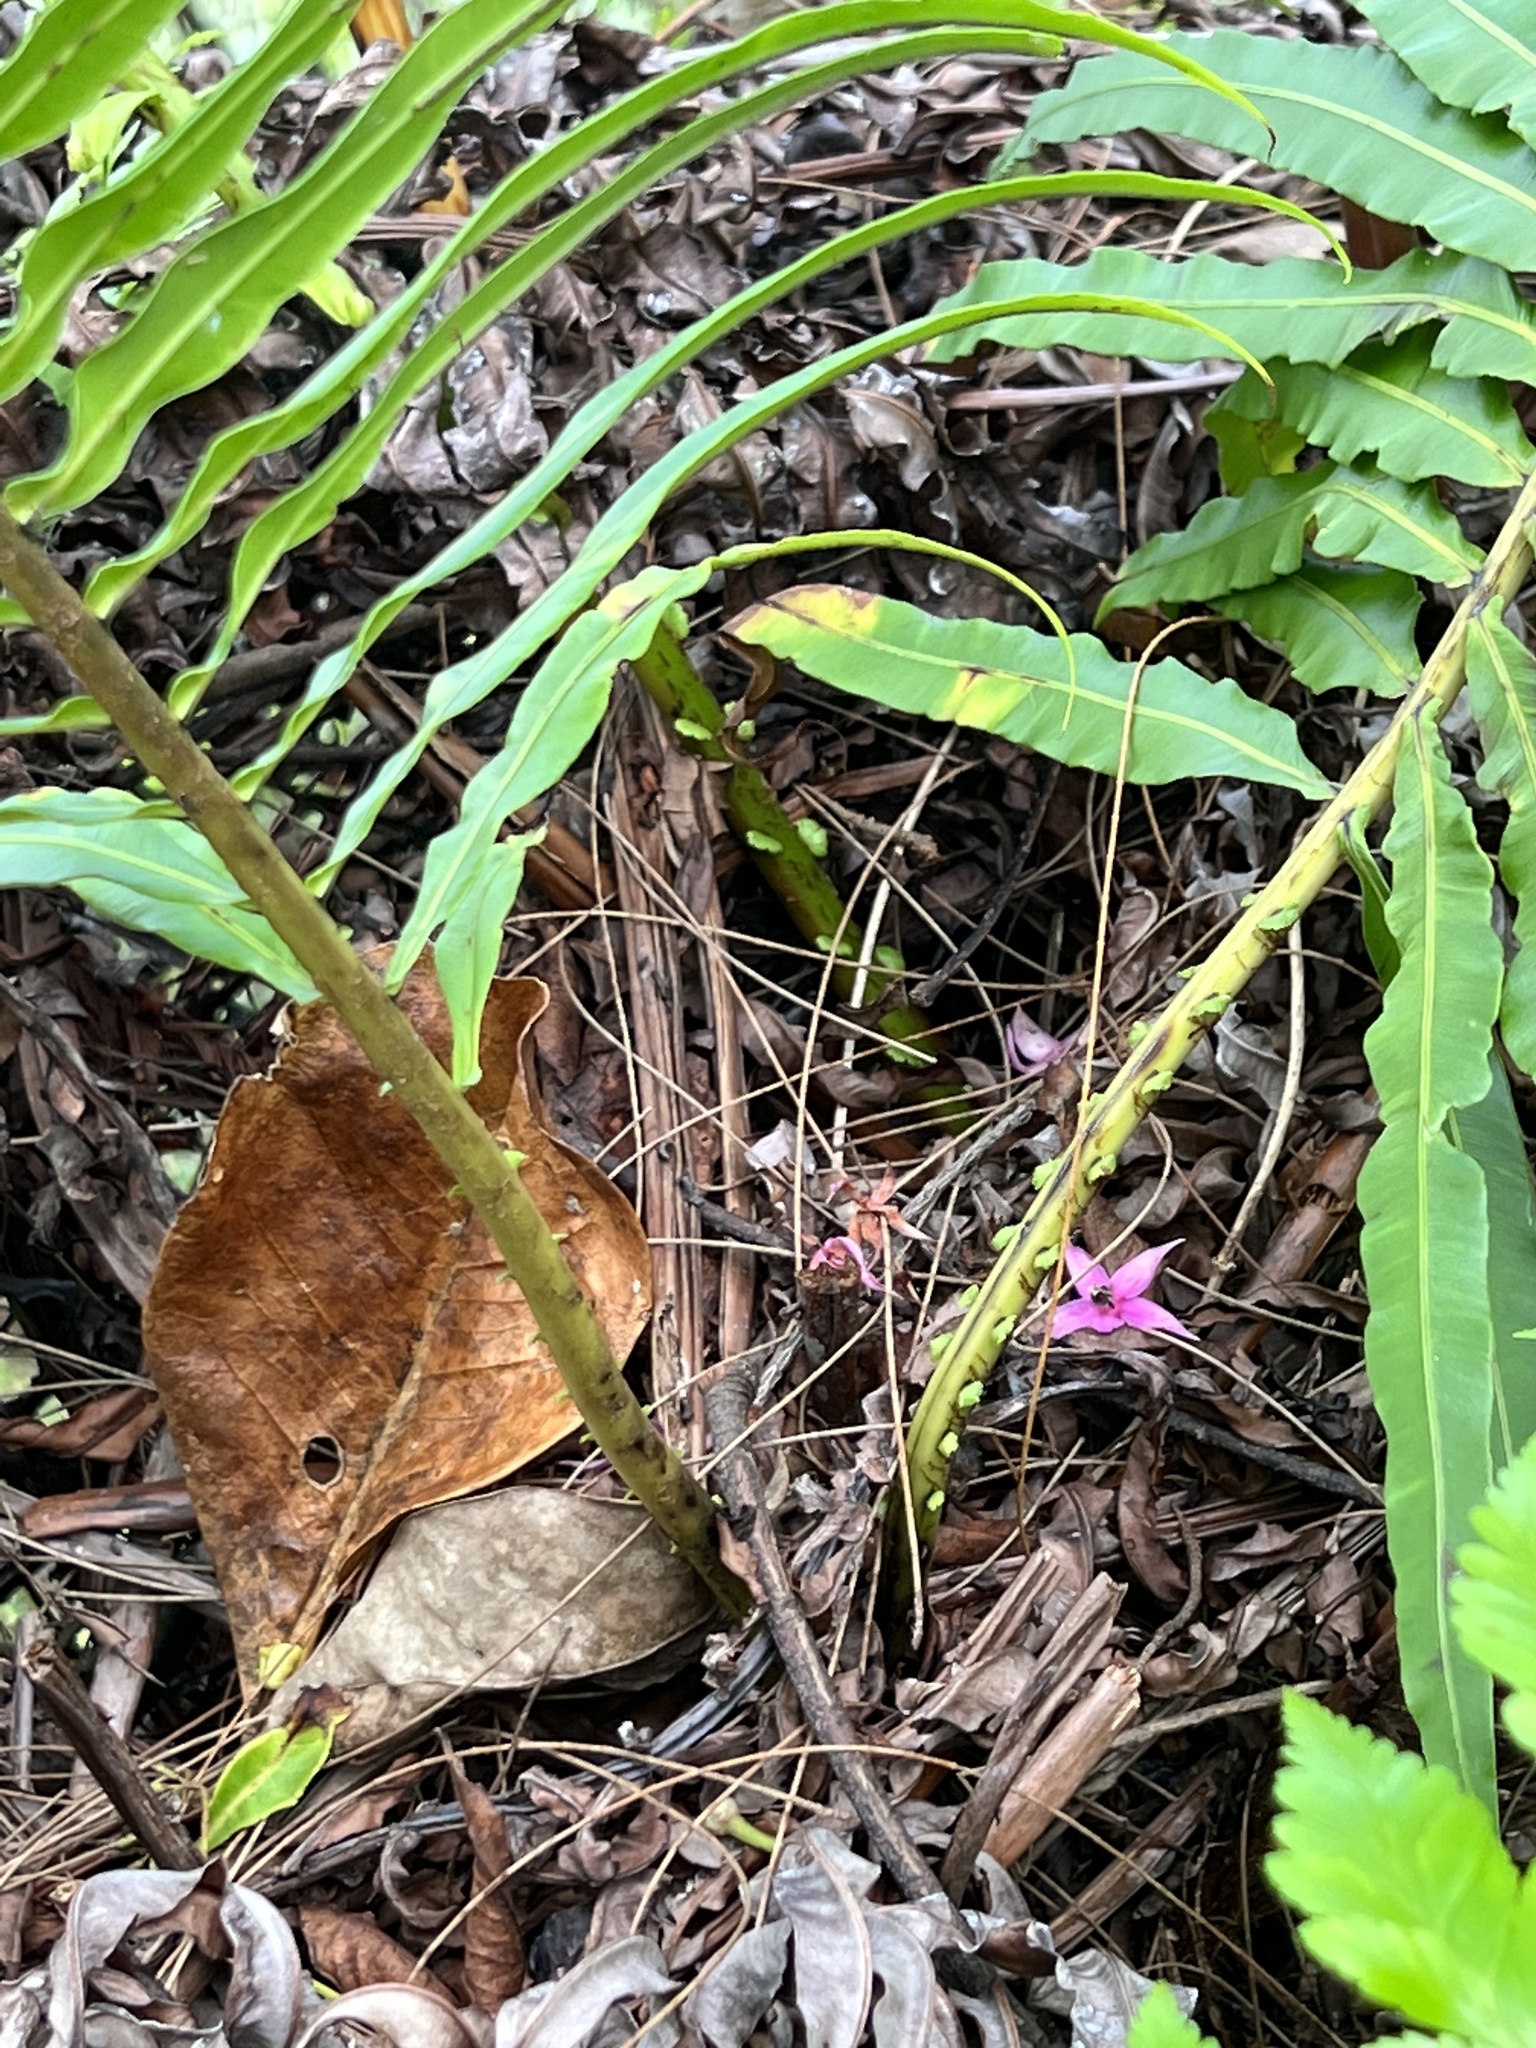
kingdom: Plantae
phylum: Tracheophyta
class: Polypodiopsida
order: Polypodiales
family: Blechnaceae
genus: Blechnopsis
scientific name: Blechnopsis orientalis
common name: Oriental blechnum
